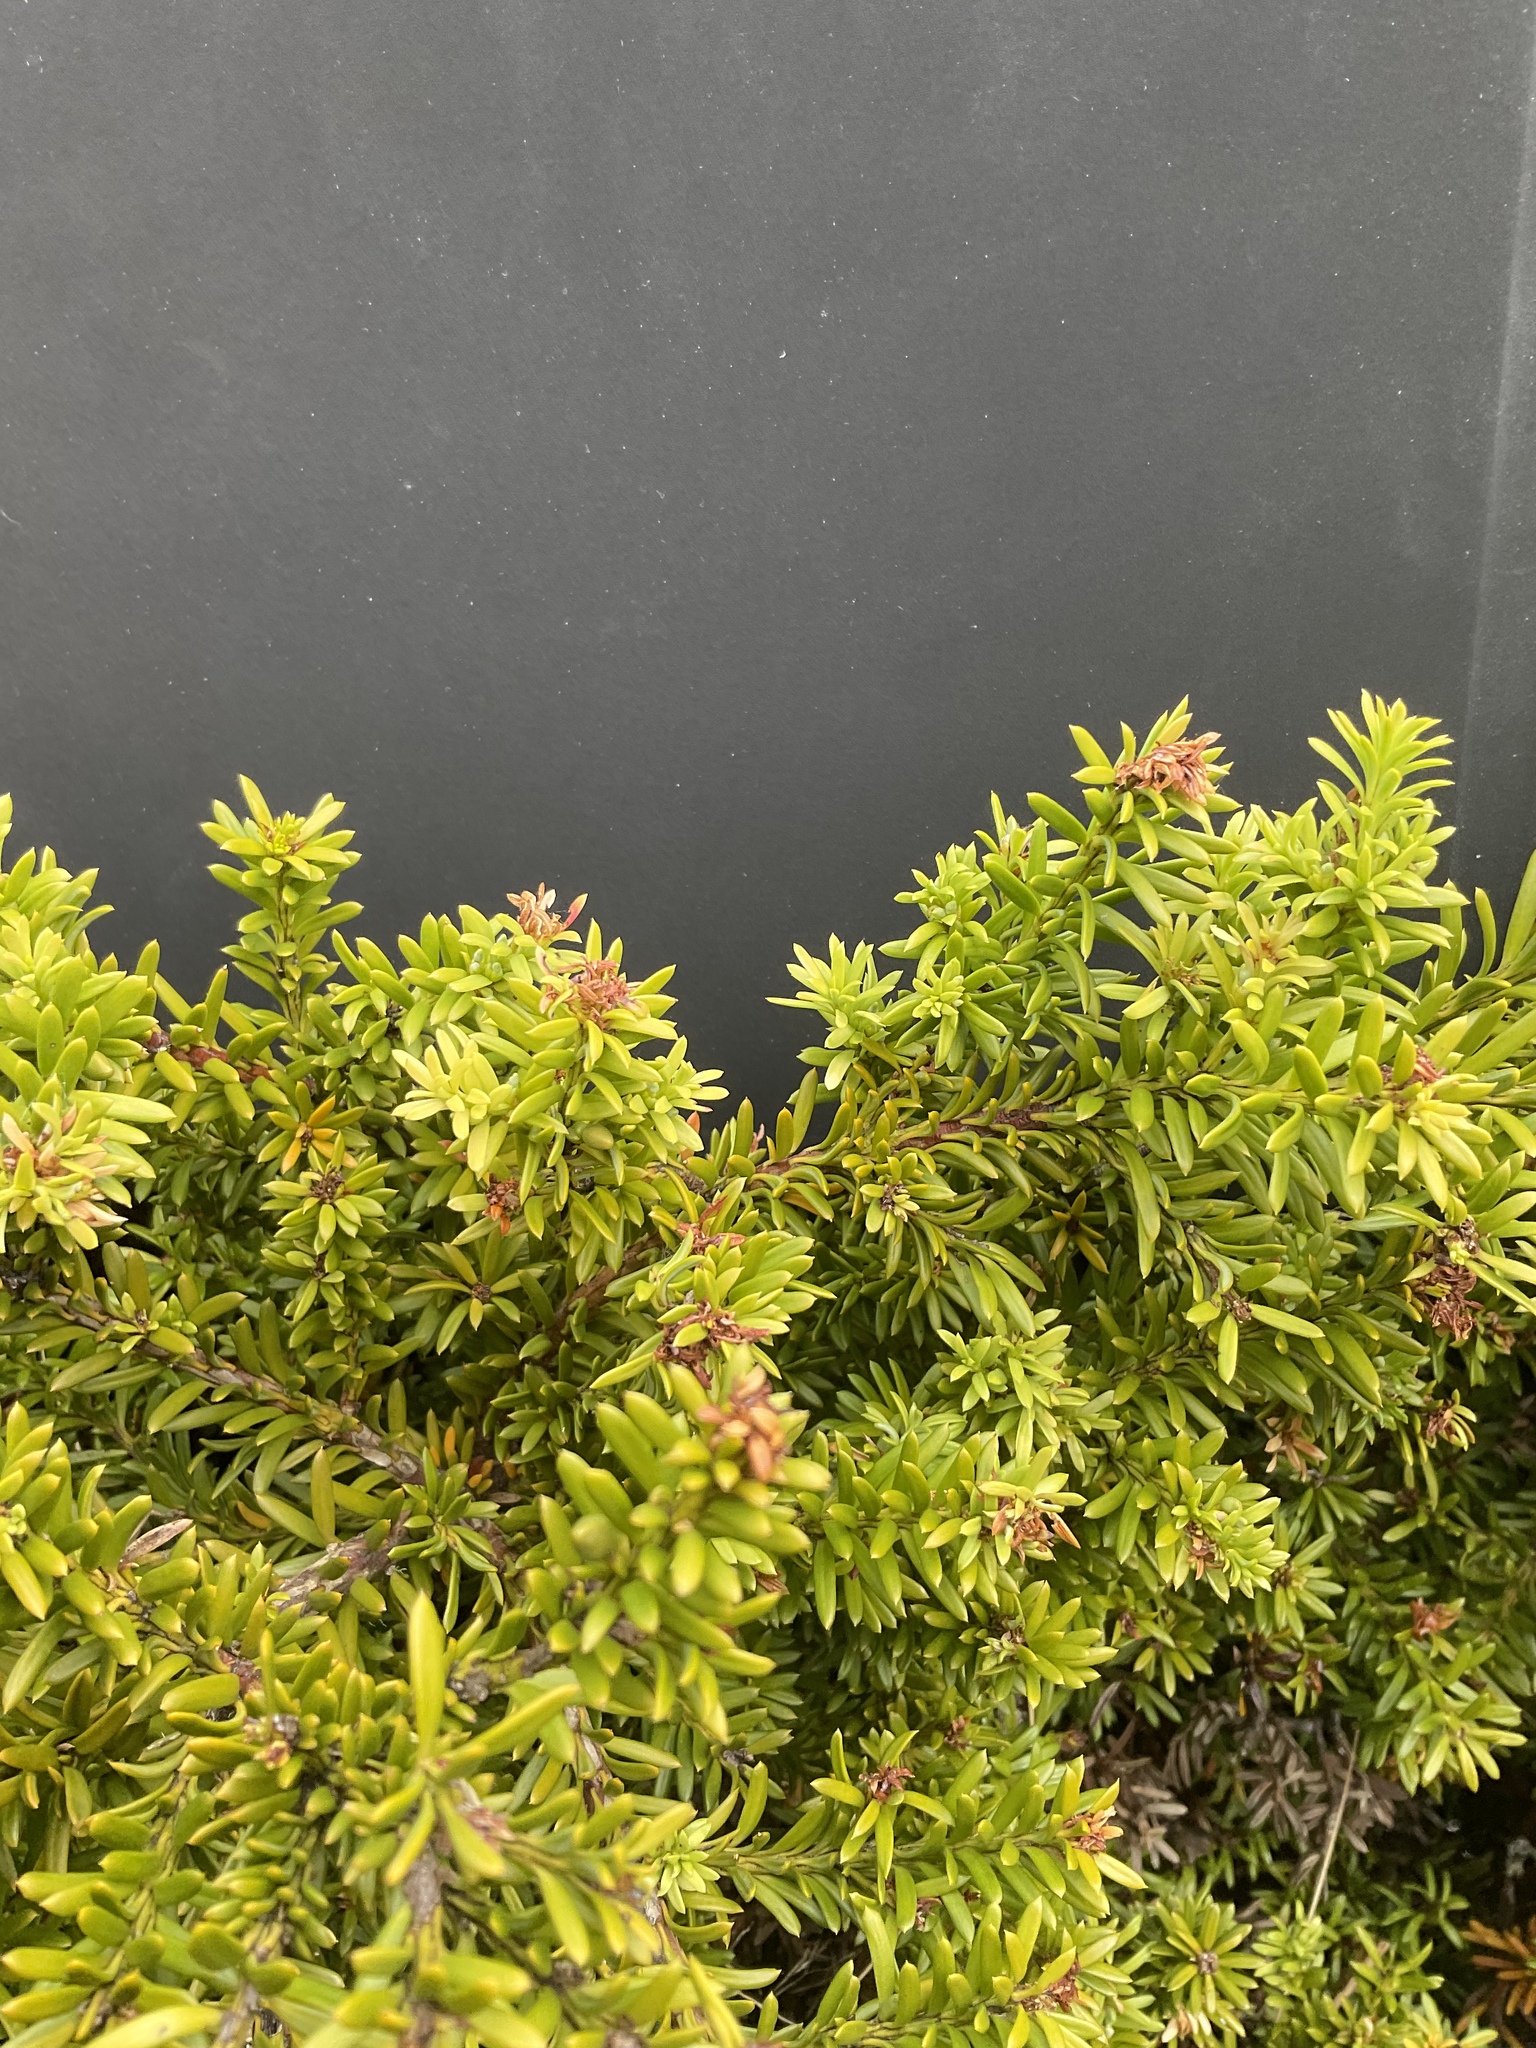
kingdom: Plantae
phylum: Tracheophyta
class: Pinopsida
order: Pinales
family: Podocarpaceae
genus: Podocarpus
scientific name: Podocarpus nivalis
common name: Alpine totara
